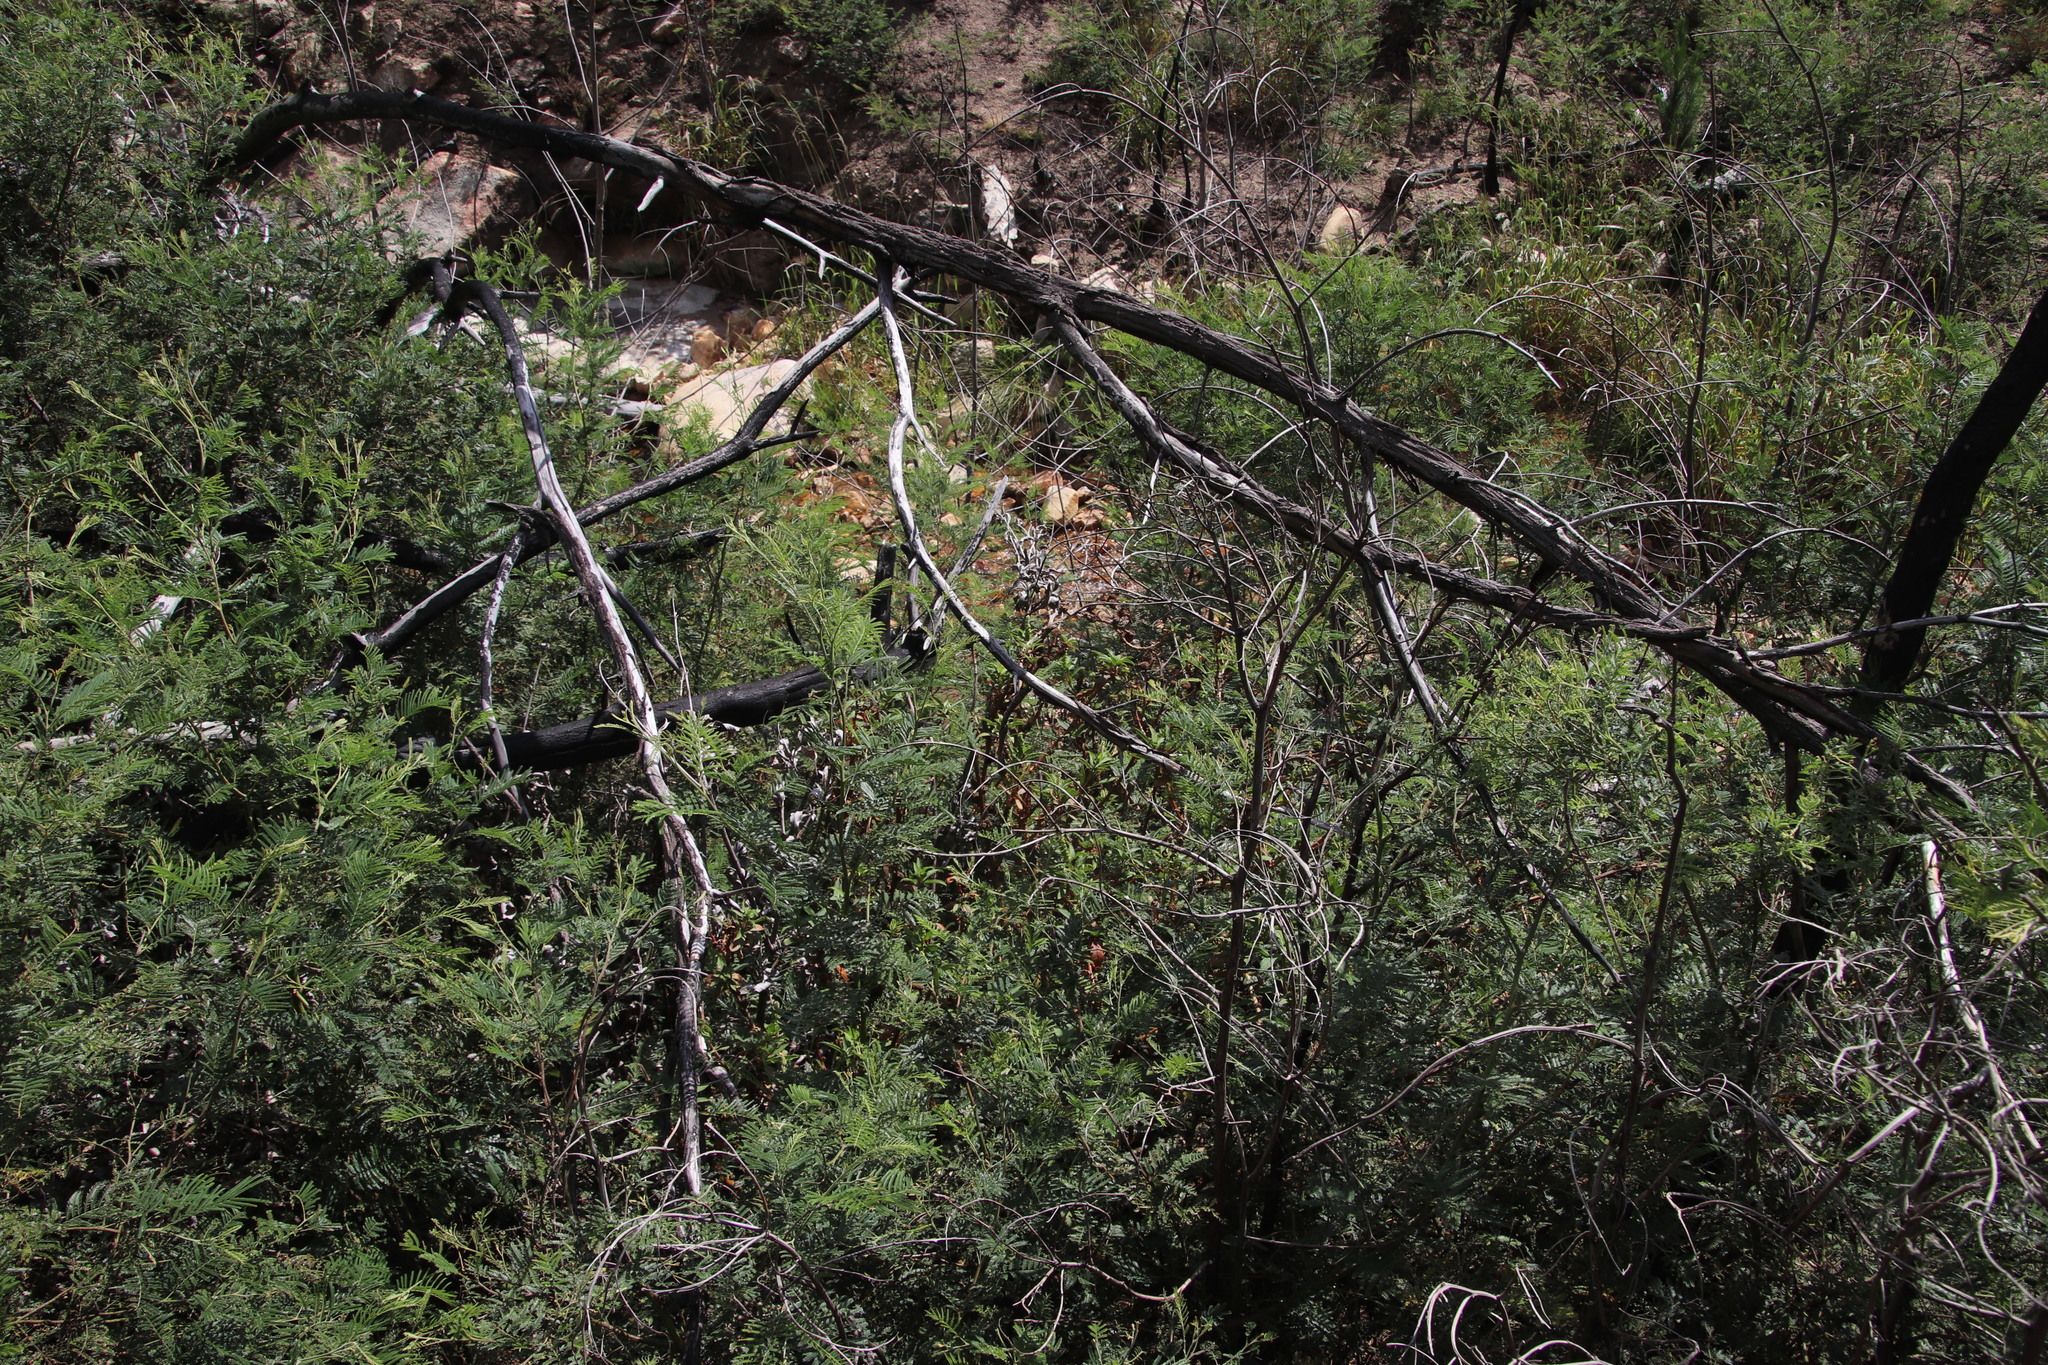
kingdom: Plantae
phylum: Tracheophyta
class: Magnoliopsida
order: Fabales
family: Fabaceae
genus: Acacia
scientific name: Acacia mearnsii
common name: Black wattle
